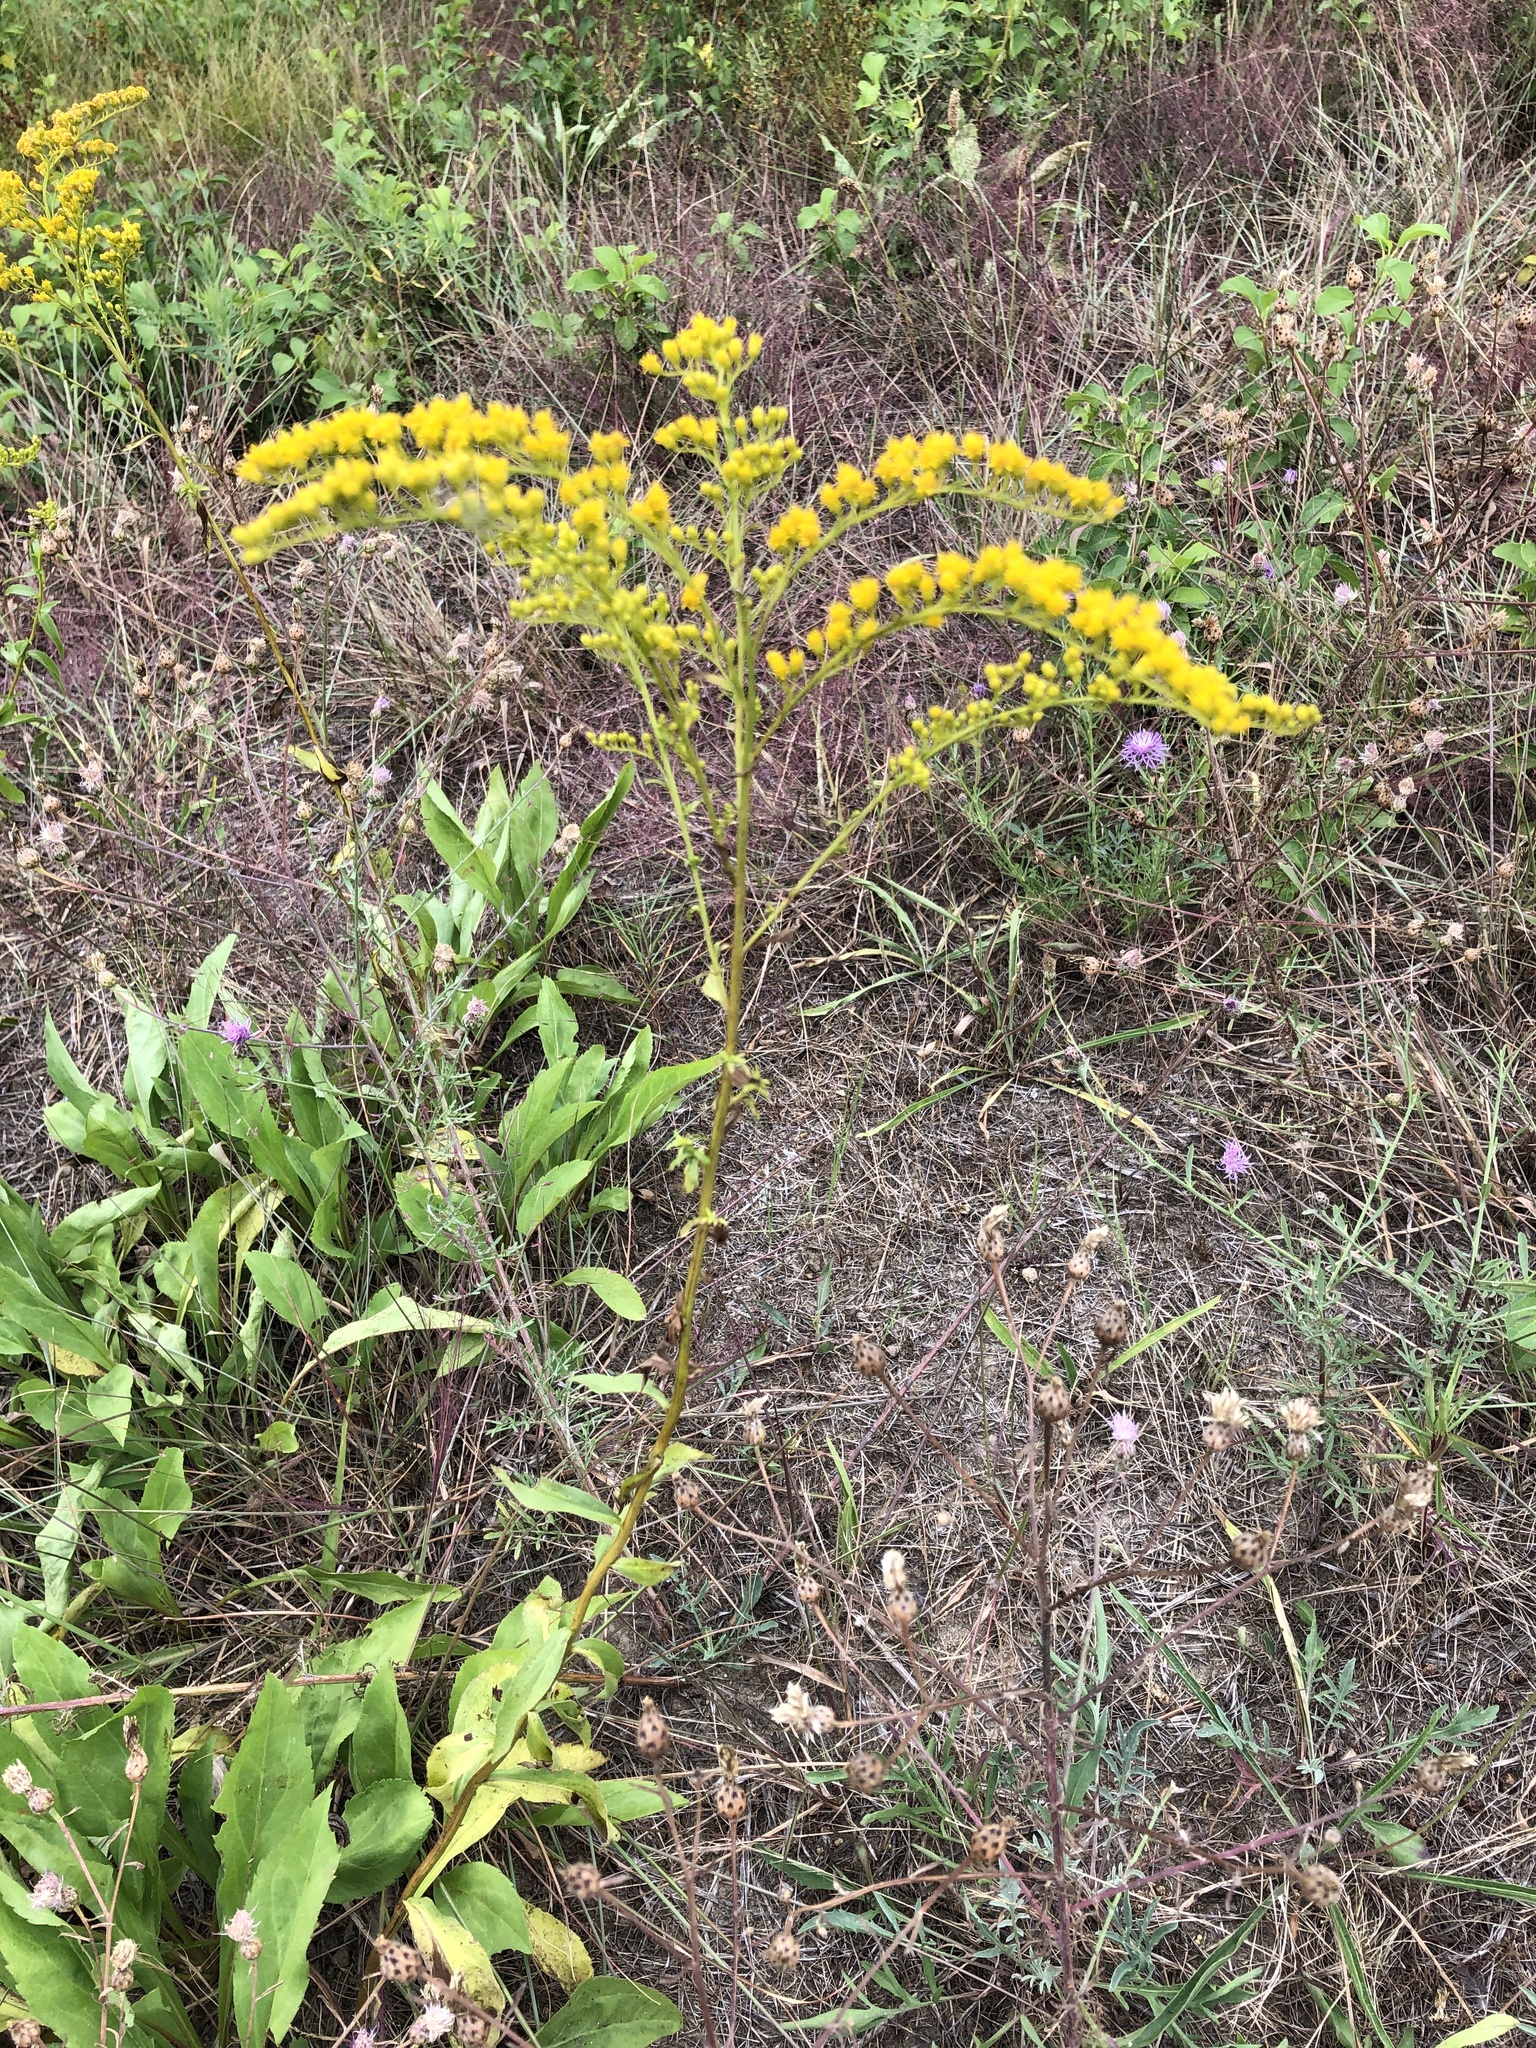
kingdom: Plantae
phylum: Tracheophyta
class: Magnoliopsida
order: Asterales
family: Asteraceae
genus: Solidago
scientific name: Solidago juncea
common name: Early goldenrod
